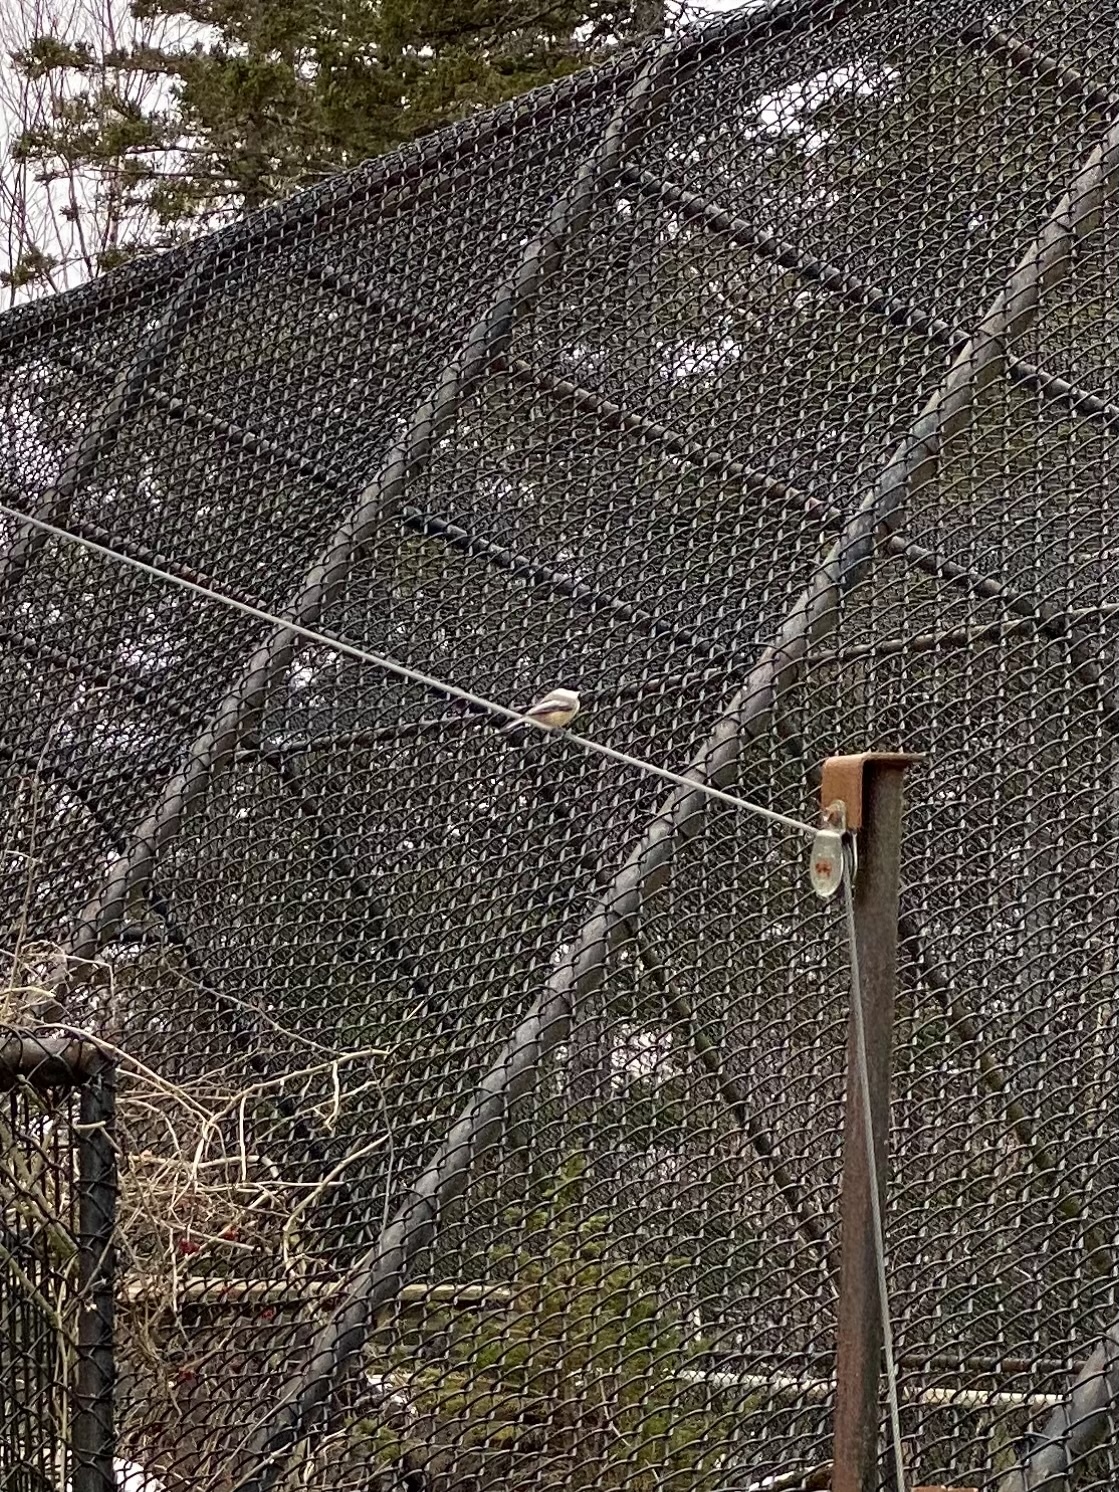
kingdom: Animalia
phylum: Chordata
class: Aves
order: Passeriformes
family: Paridae
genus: Poecile
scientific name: Poecile atricapillus
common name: Black-capped chickadee
